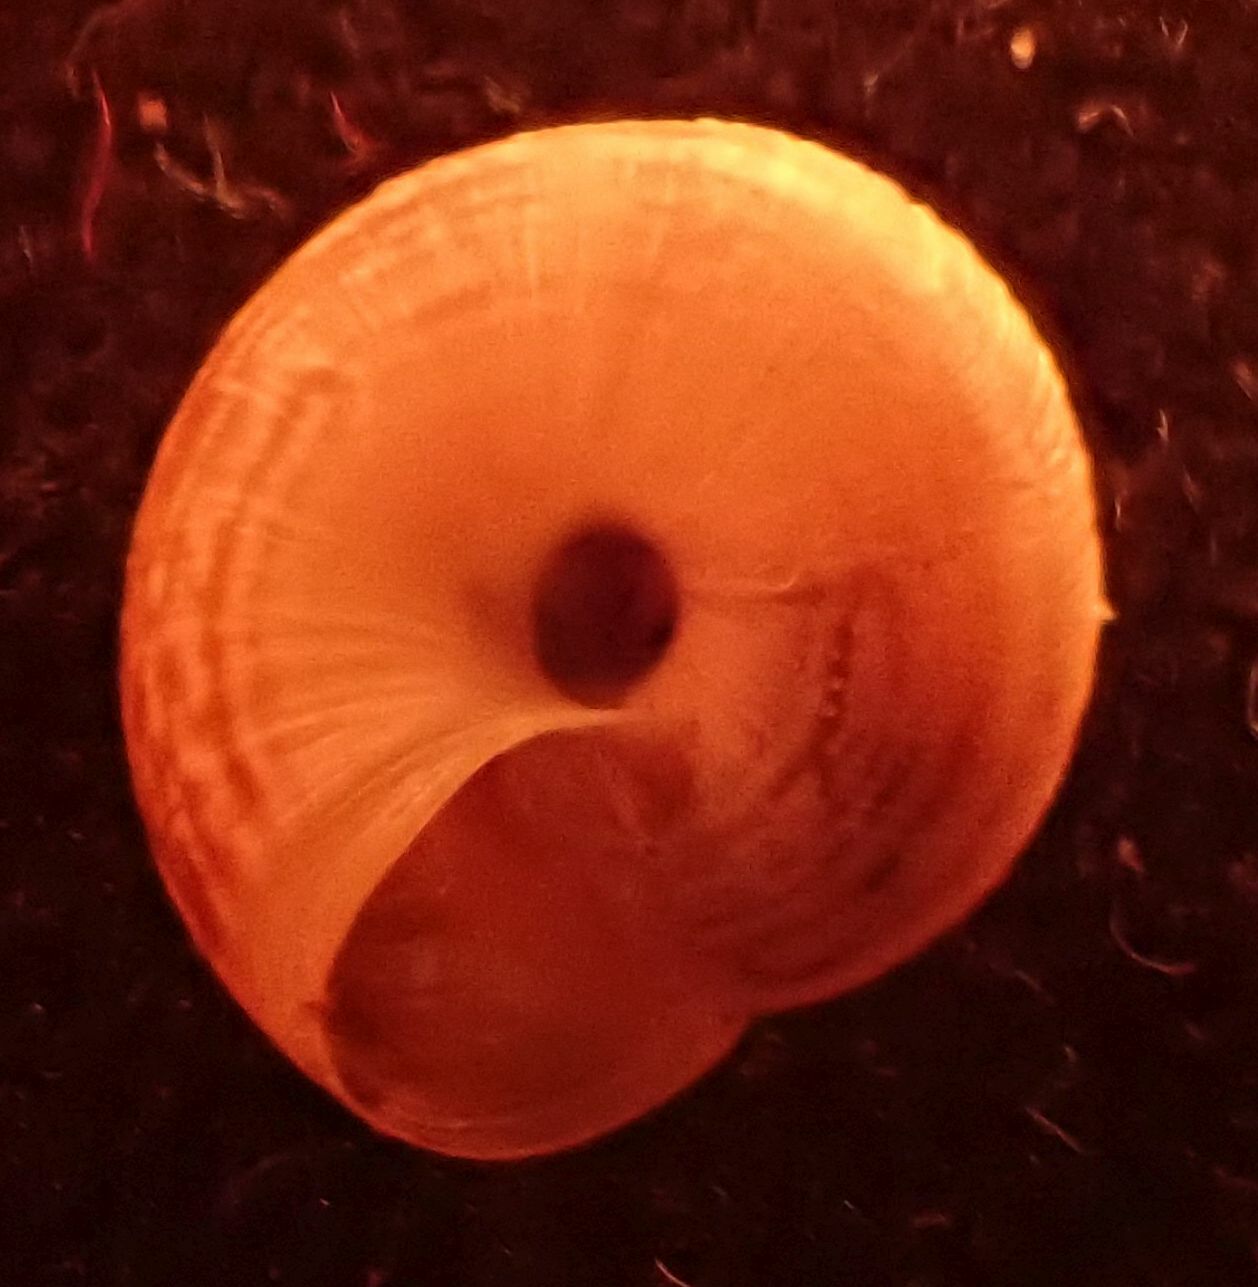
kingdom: Animalia
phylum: Mollusca
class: Gastropoda
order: Stylommatophora
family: Geomitridae
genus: Xeroplexa
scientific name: Xeroplexa intersecta
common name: Wrinkled snail
